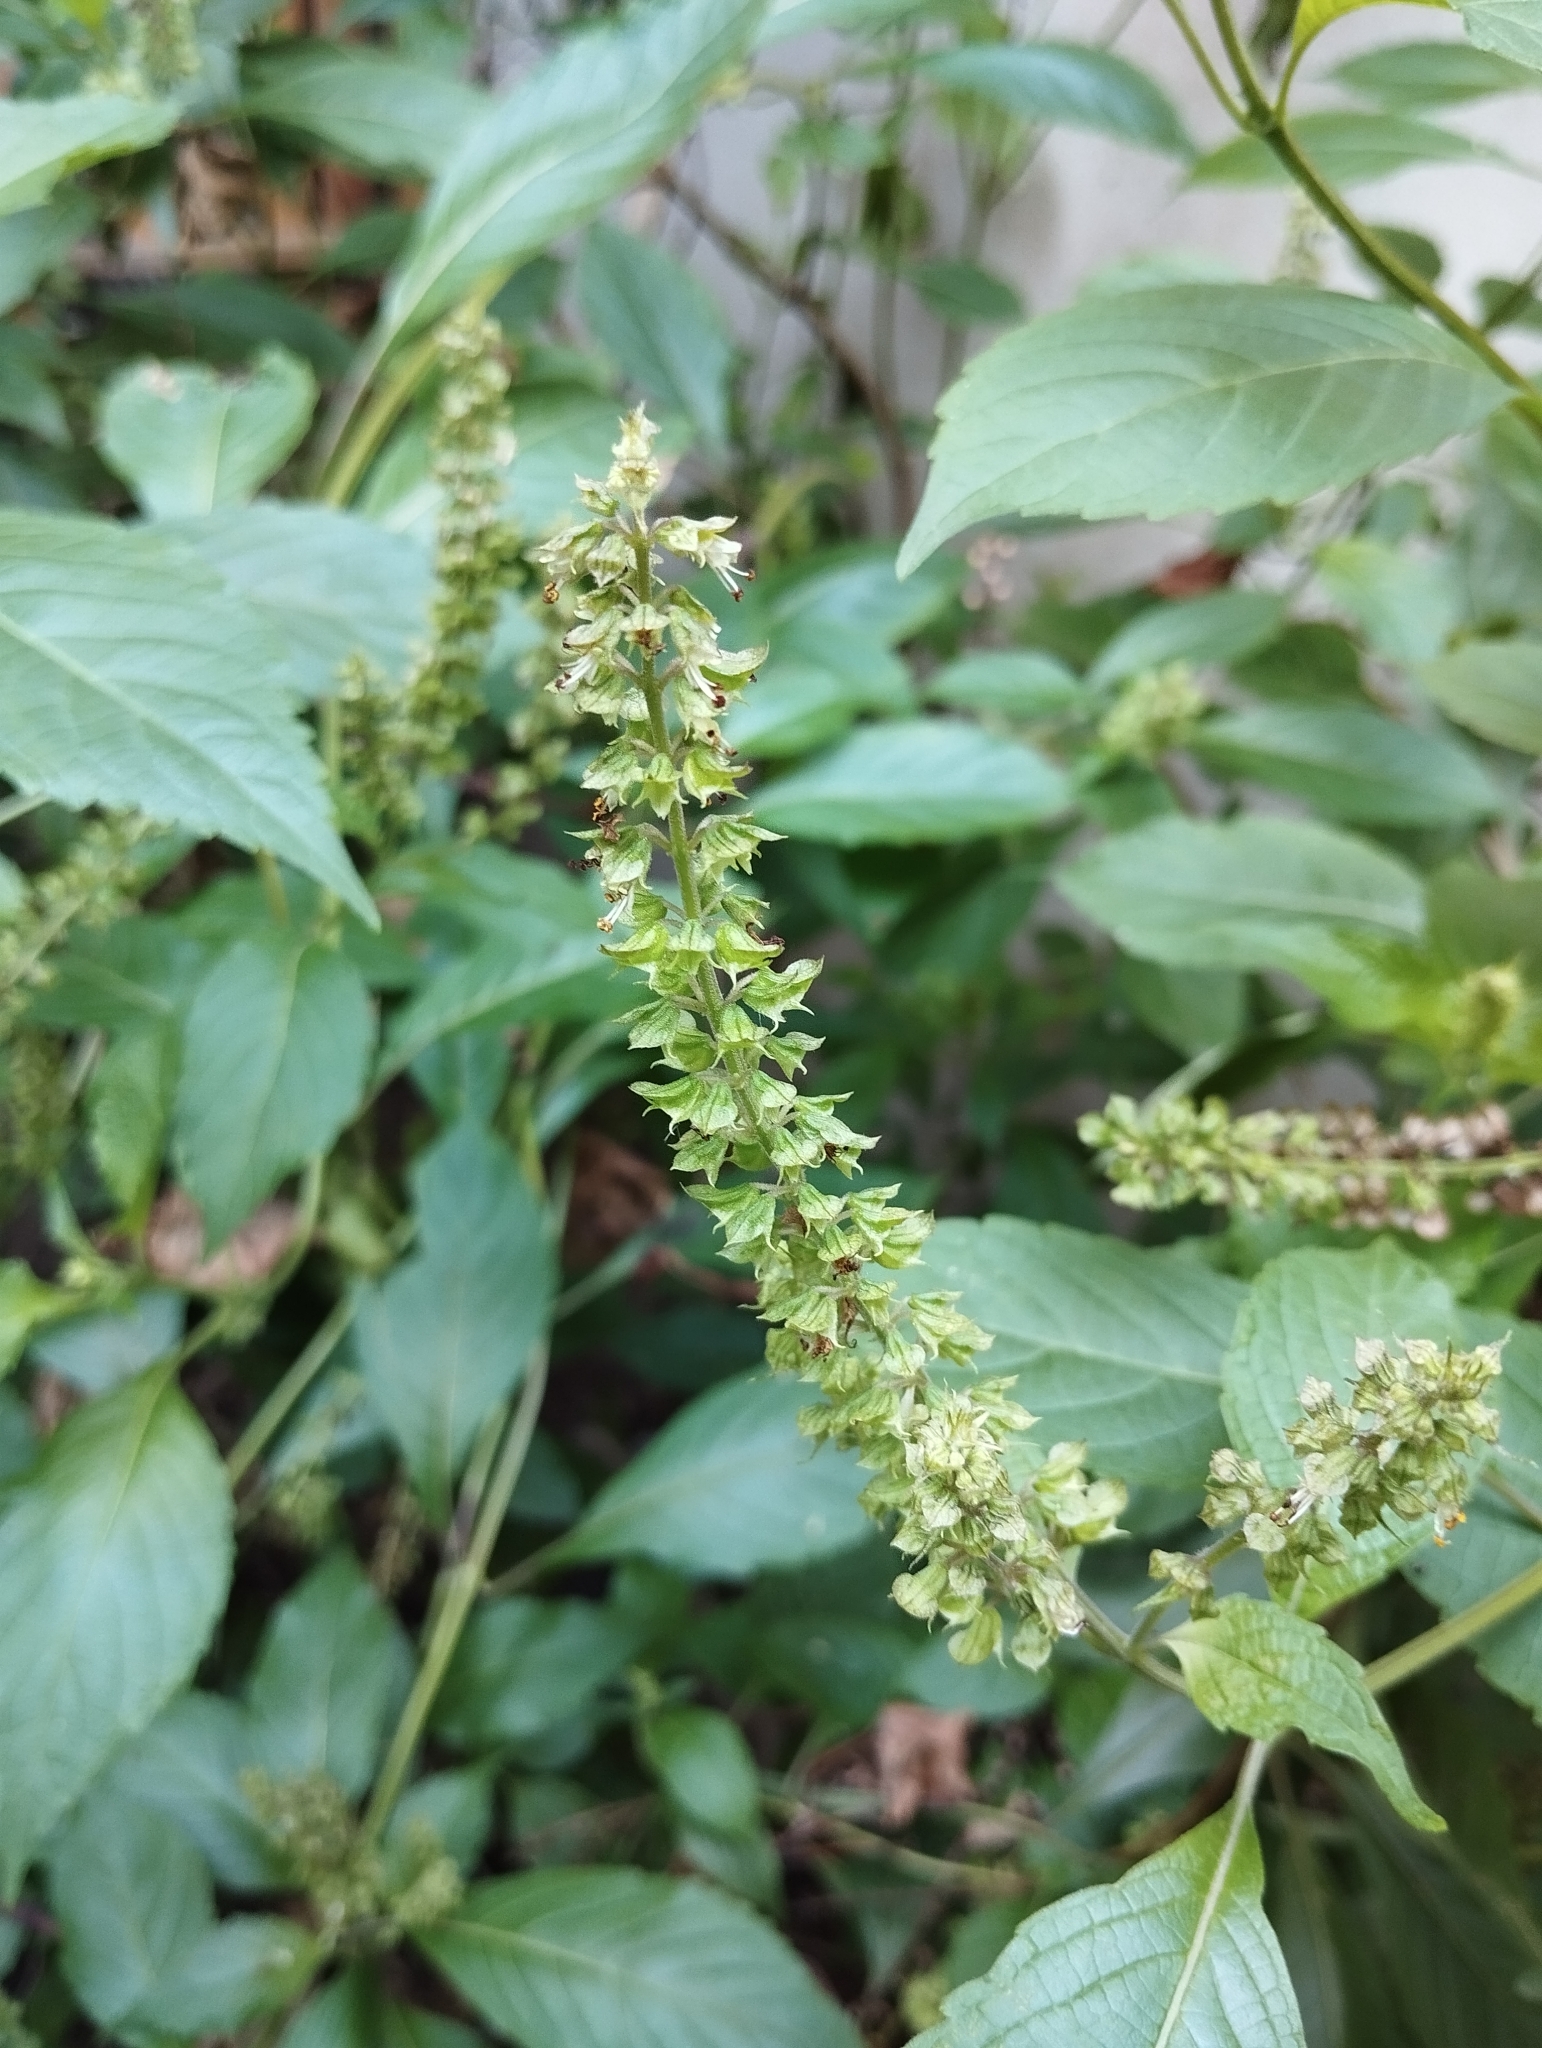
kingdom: Plantae
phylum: Tracheophyta
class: Magnoliopsida
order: Lamiales
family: Lamiaceae
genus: Ocimum
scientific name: Ocimum gratissimum
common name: African basil
